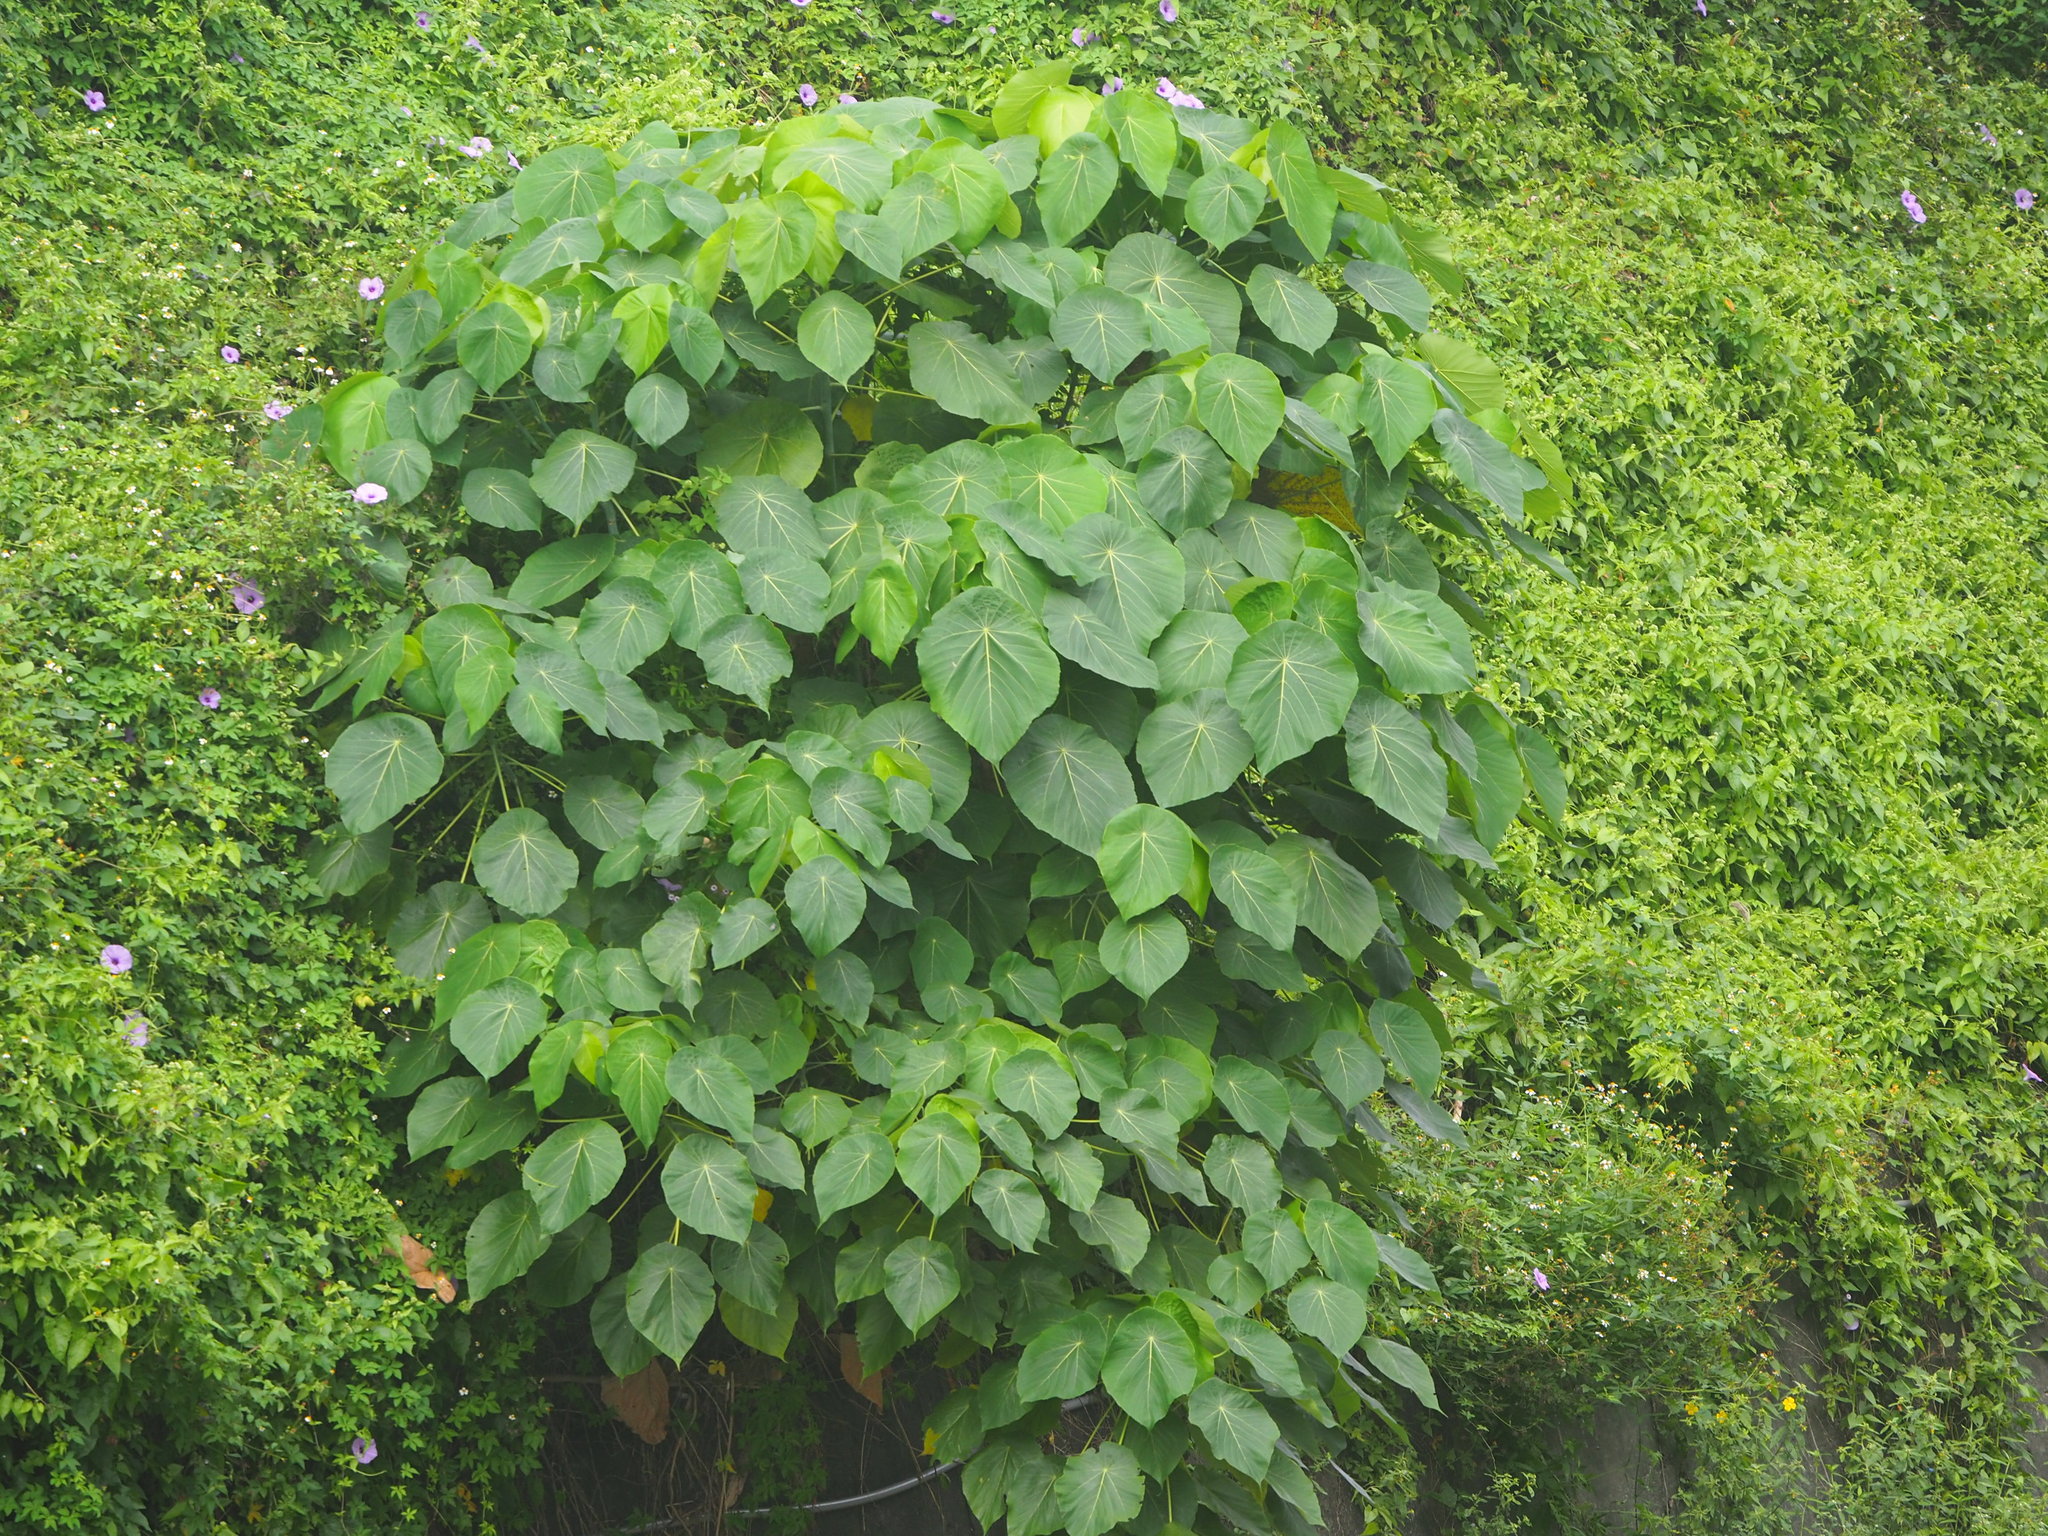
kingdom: Plantae
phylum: Tracheophyta
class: Magnoliopsida
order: Malpighiales
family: Euphorbiaceae
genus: Macaranga
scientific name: Macaranga tanarius
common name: Parasol leaf tree
